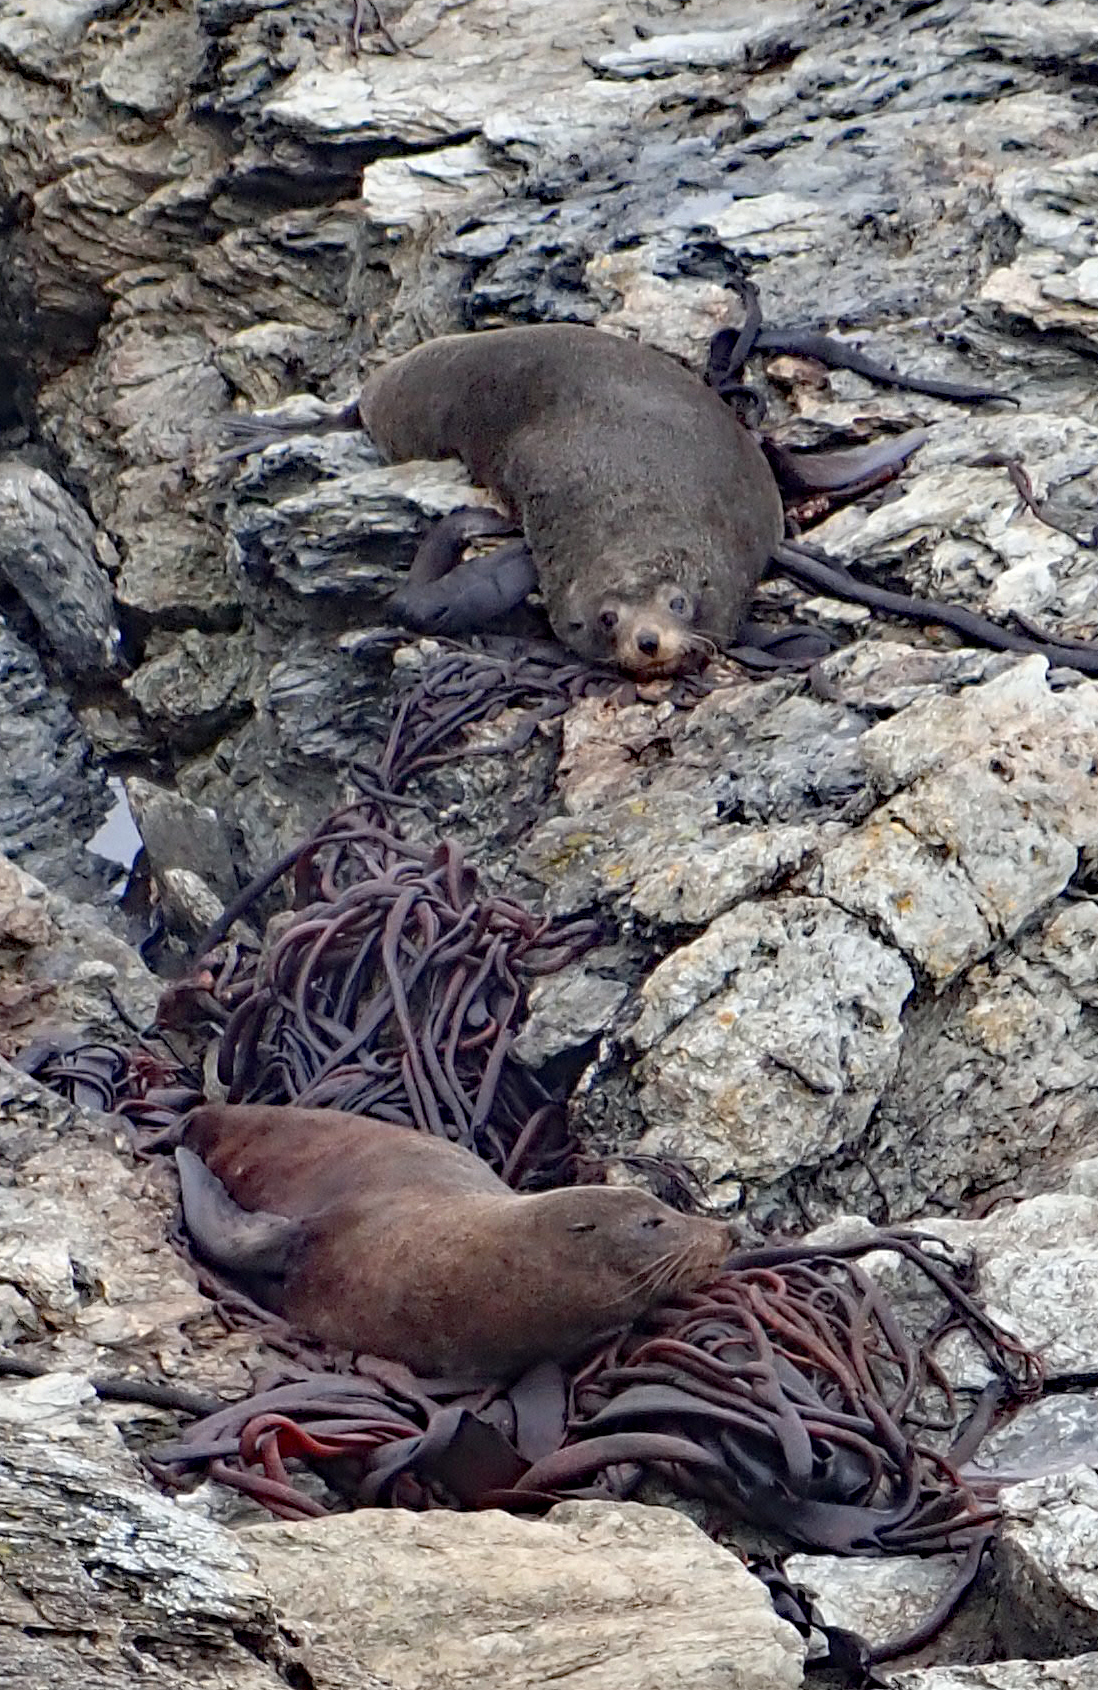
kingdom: Animalia
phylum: Chordata
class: Mammalia
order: Carnivora
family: Otariidae
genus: Arctocephalus
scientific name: Arctocephalus forsteri
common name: New zealand fur seal
